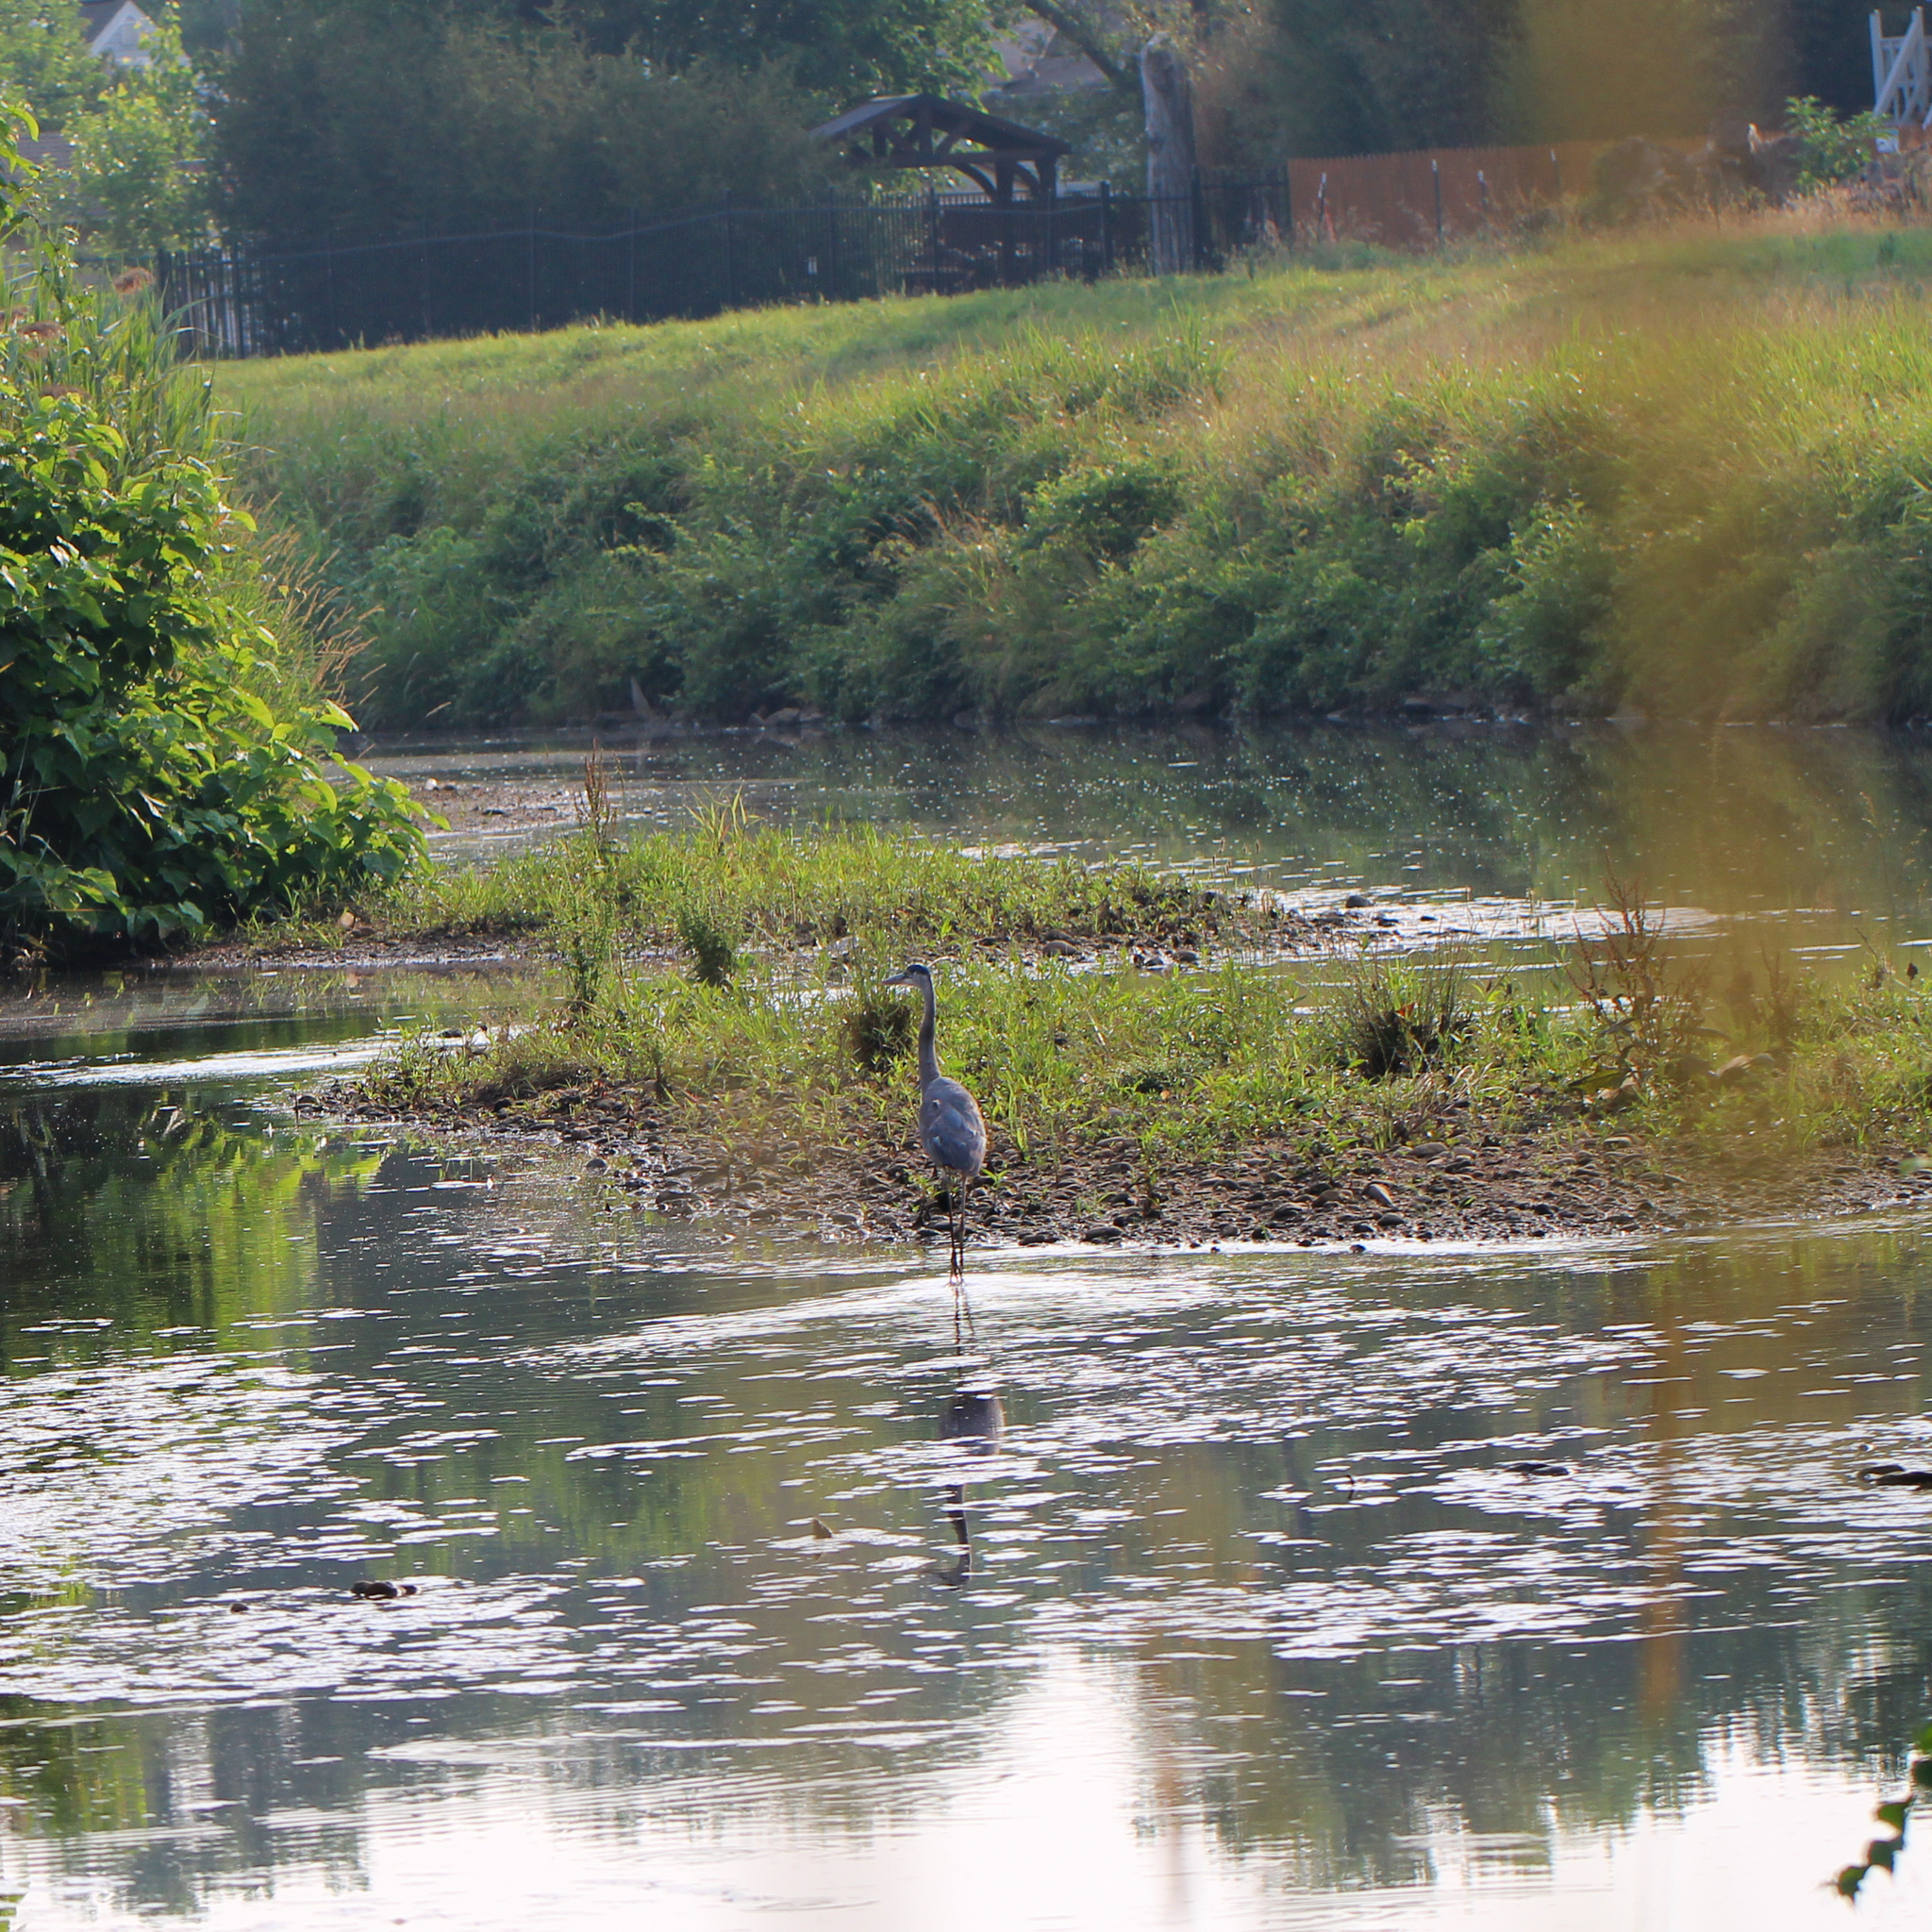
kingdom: Animalia
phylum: Chordata
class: Aves
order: Pelecaniformes
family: Ardeidae
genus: Ardea
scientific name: Ardea herodias
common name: Great blue heron
